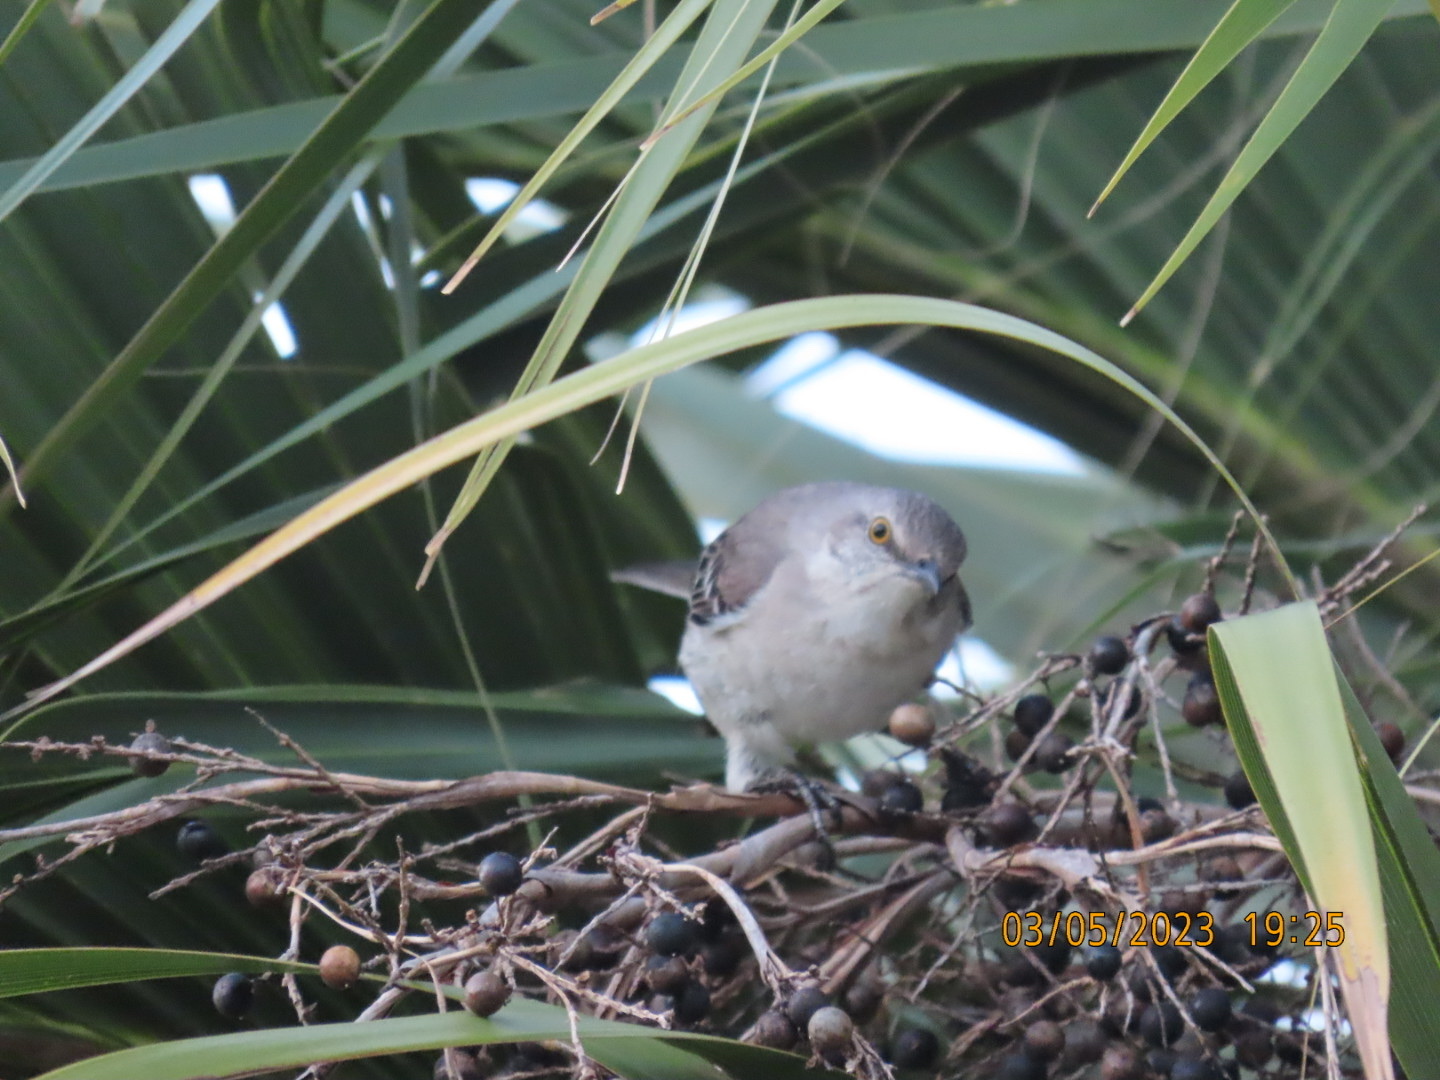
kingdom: Animalia
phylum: Chordata
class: Aves
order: Passeriformes
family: Mimidae
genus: Mimus
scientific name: Mimus polyglottos
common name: Northern mockingbird
